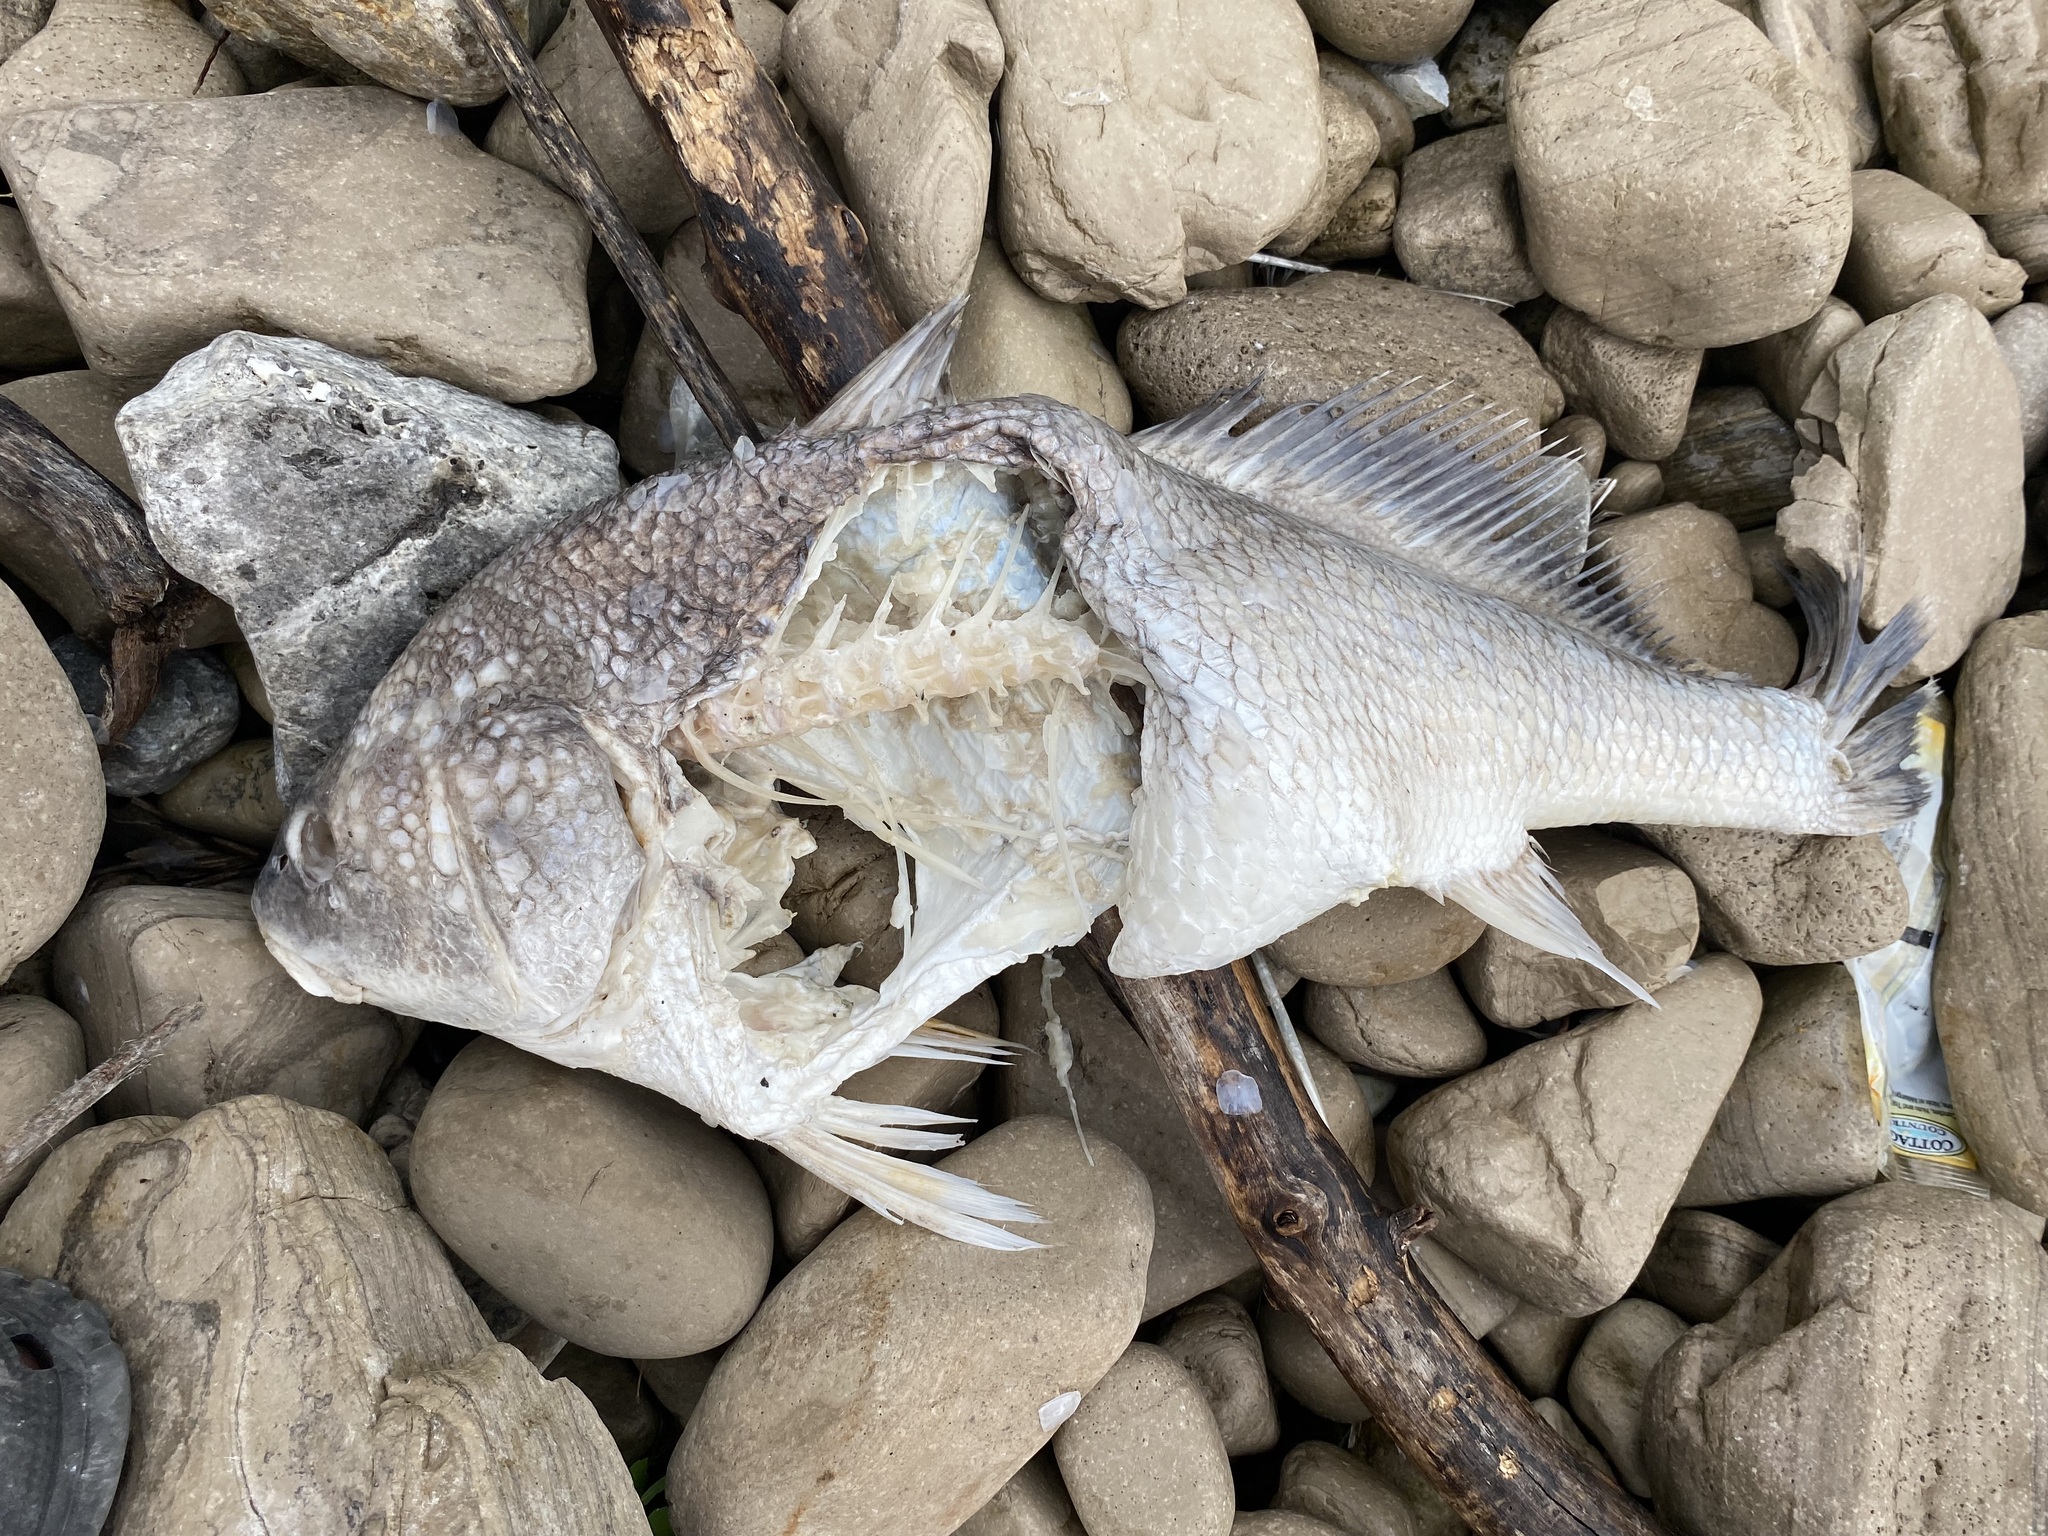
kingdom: Animalia
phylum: Chordata
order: Perciformes
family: Sciaenidae
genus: Aplodinotus
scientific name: Aplodinotus grunniens
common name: Freshwater drum
